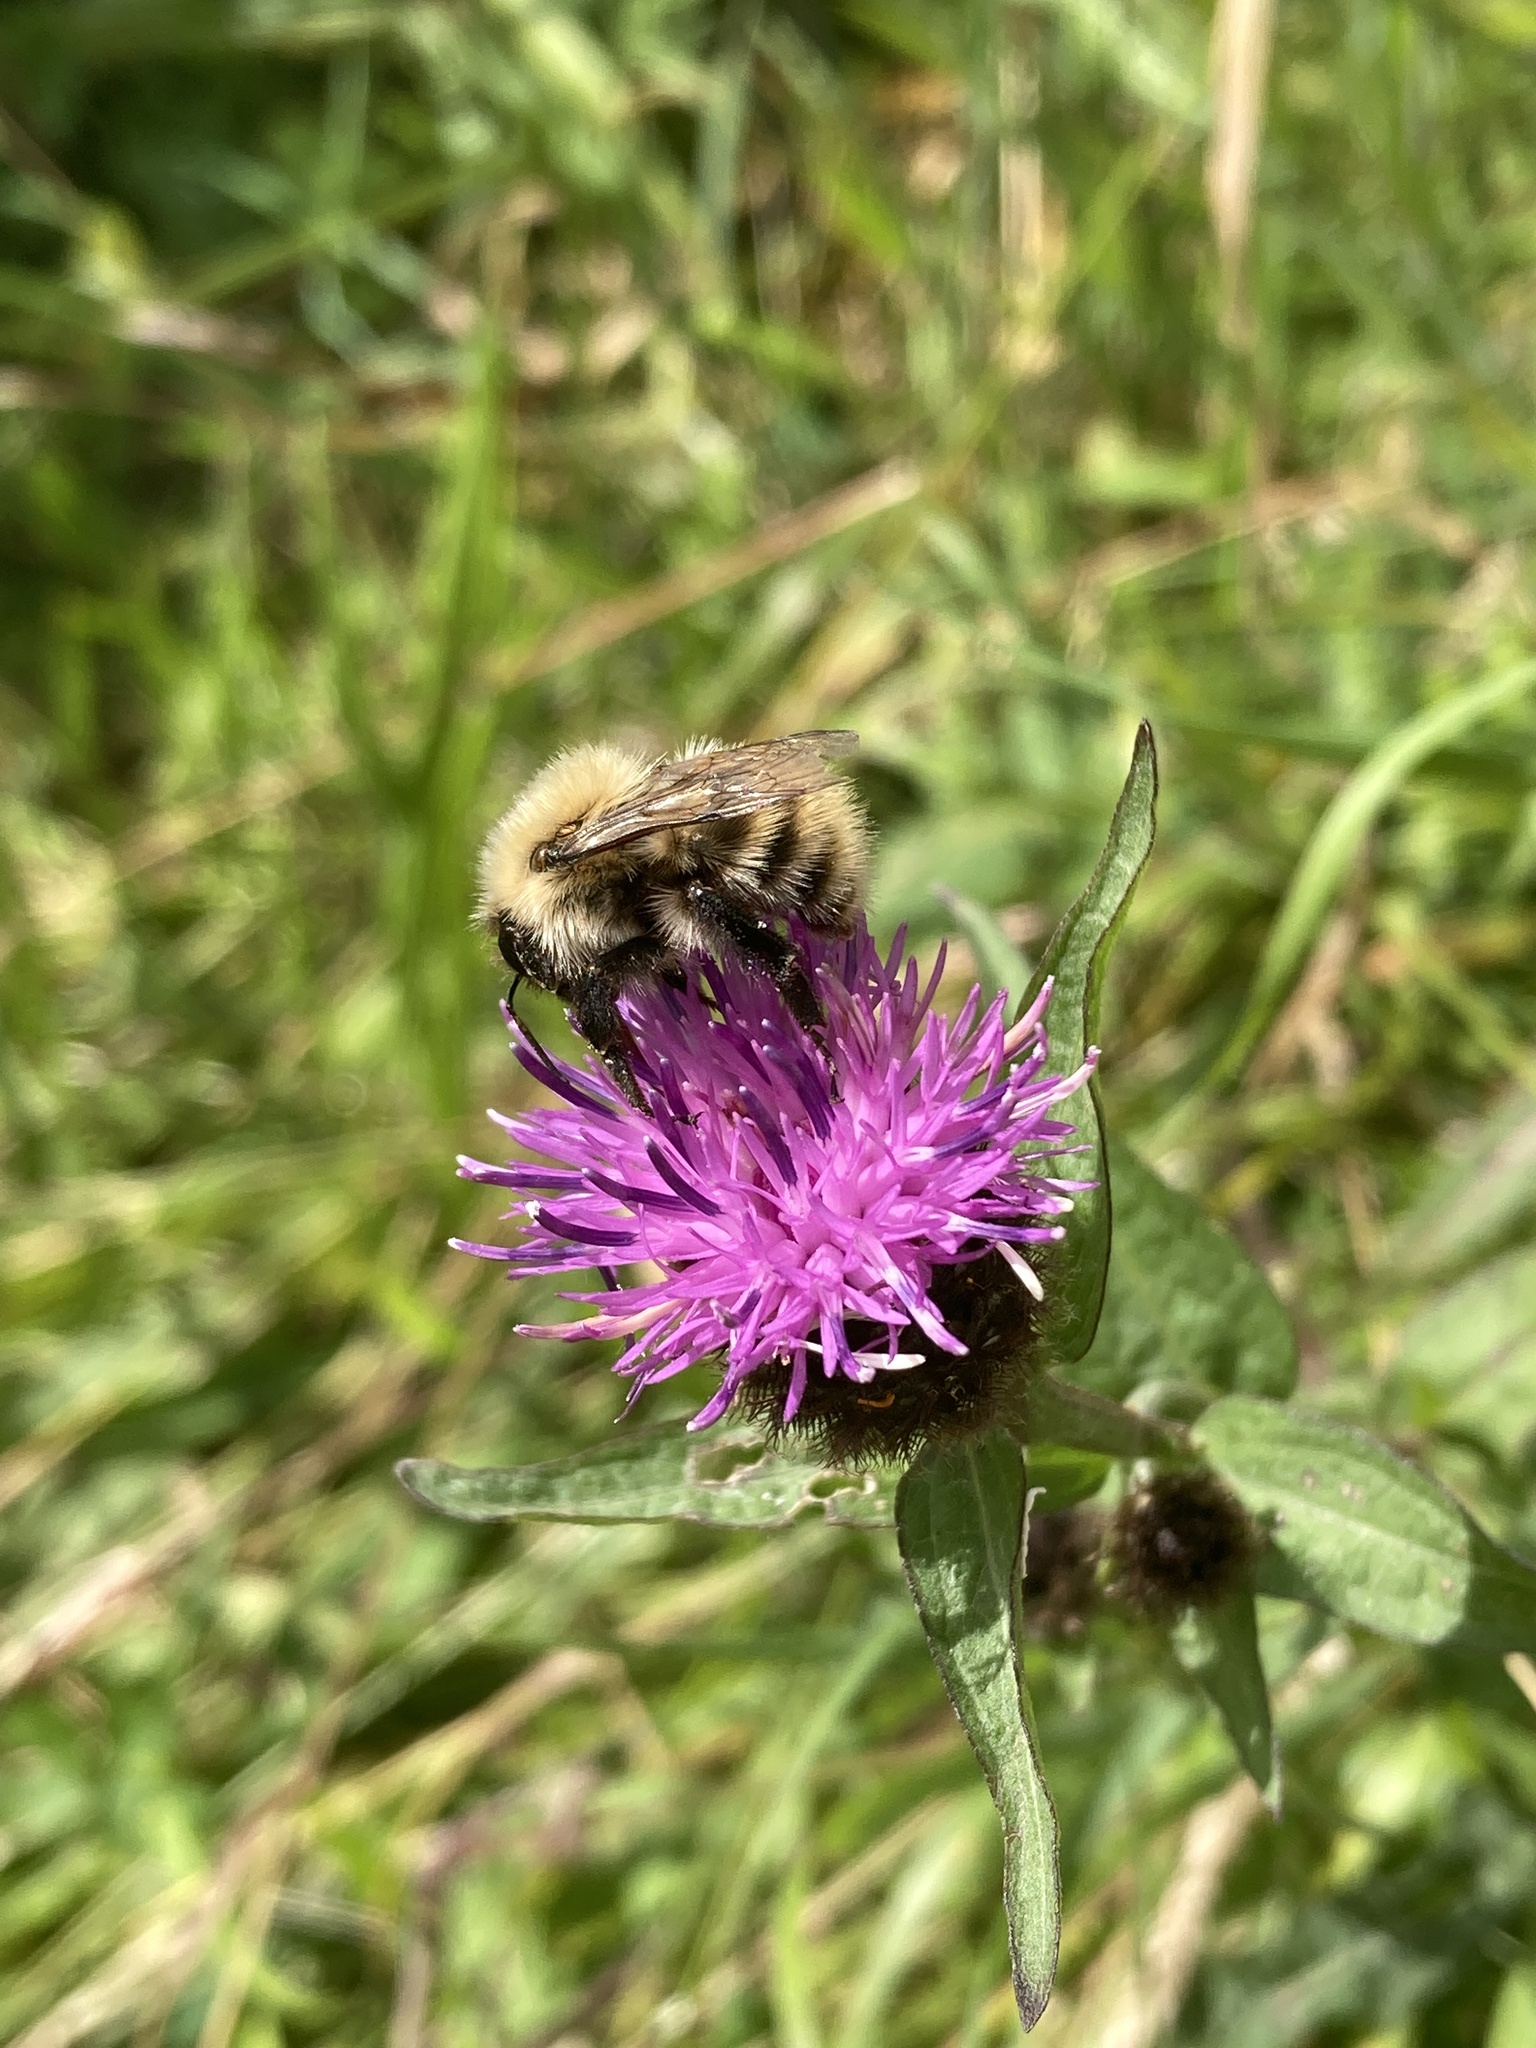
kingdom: Animalia
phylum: Arthropoda
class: Insecta
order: Hymenoptera
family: Apidae
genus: Bombus
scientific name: Bombus pascuorum
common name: Common carder bee
